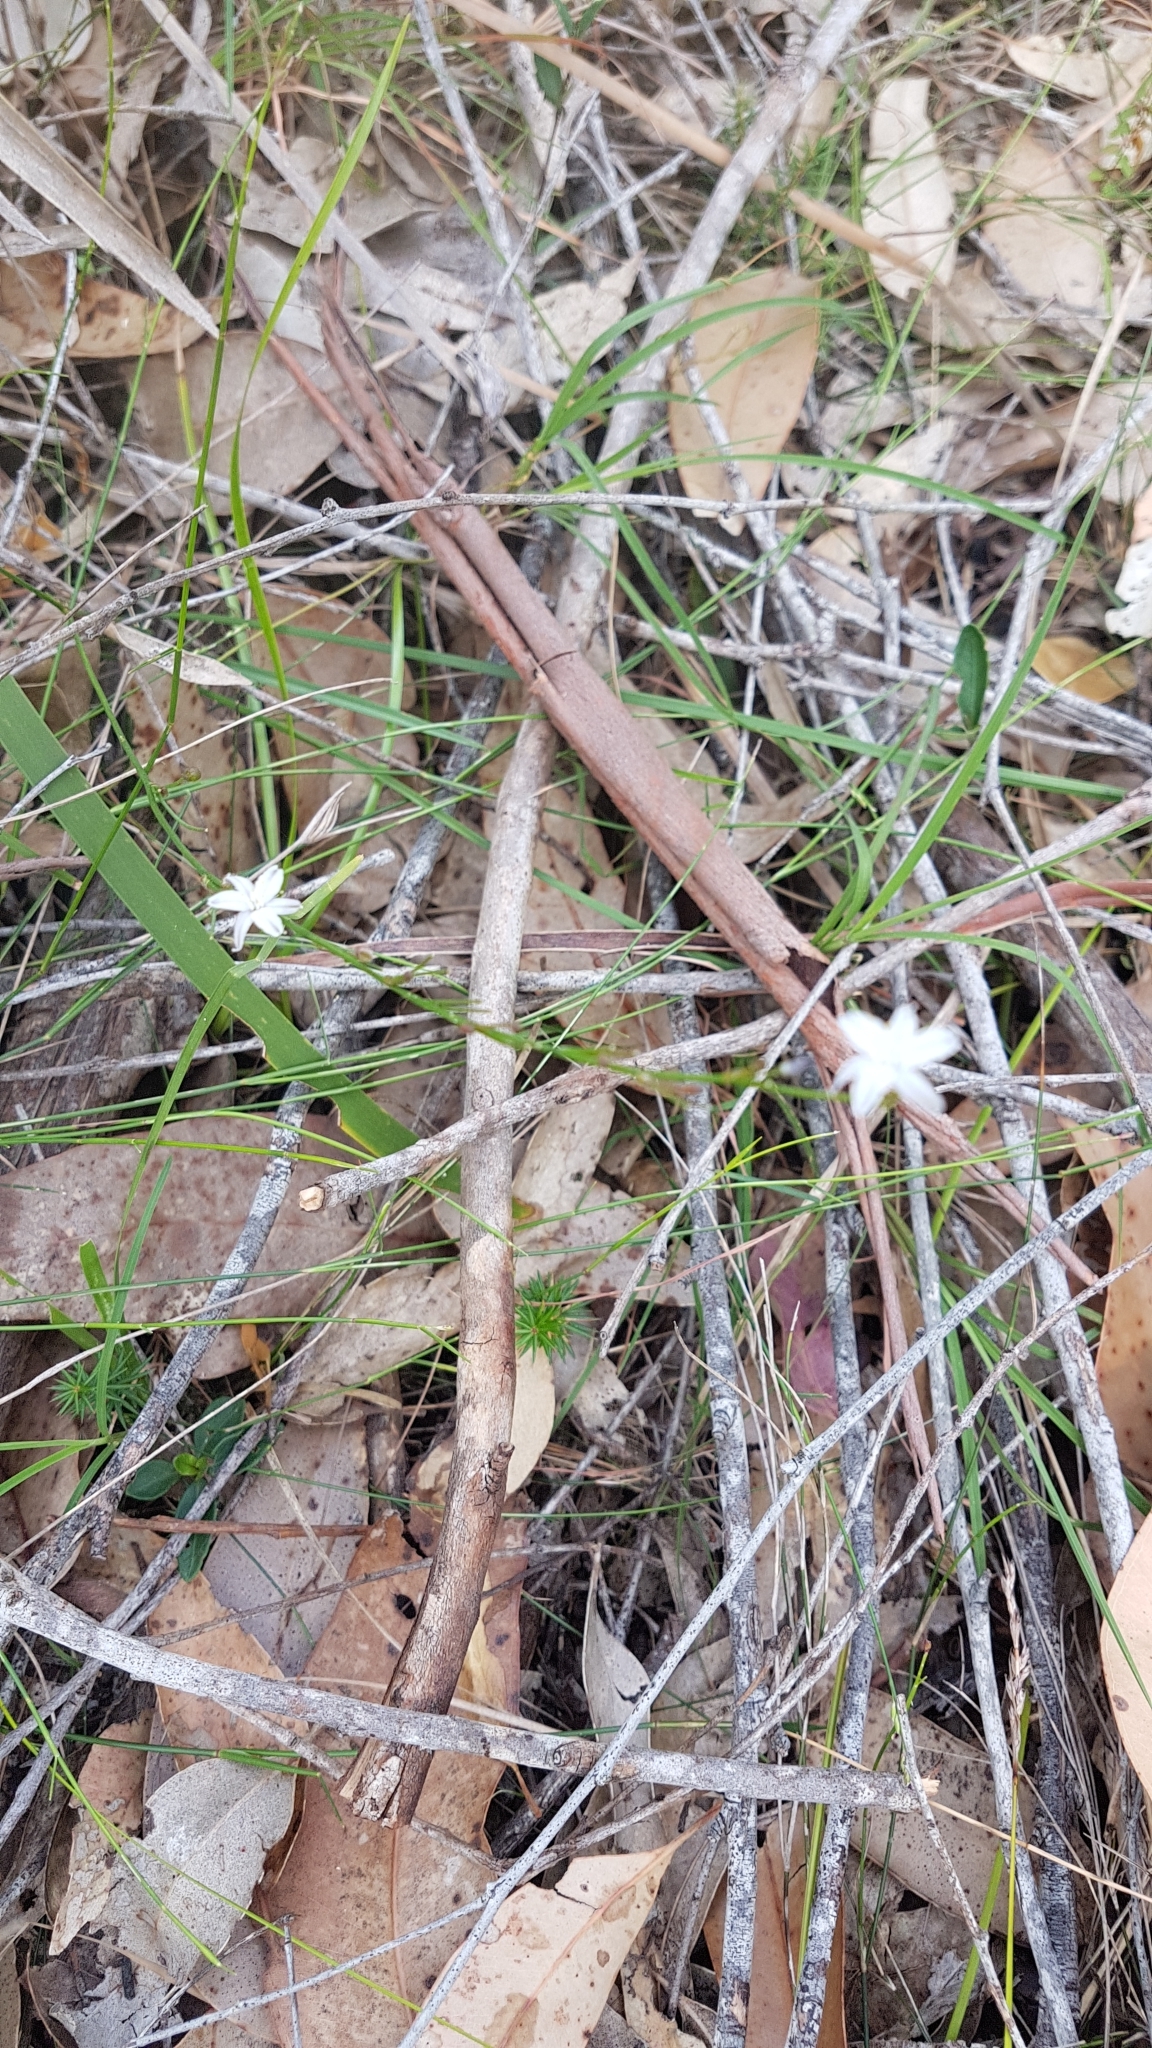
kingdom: Plantae
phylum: Tracheophyta
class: Liliopsida
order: Asparagales
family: Asphodelaceae
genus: Caesia
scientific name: Caesia parviflora
